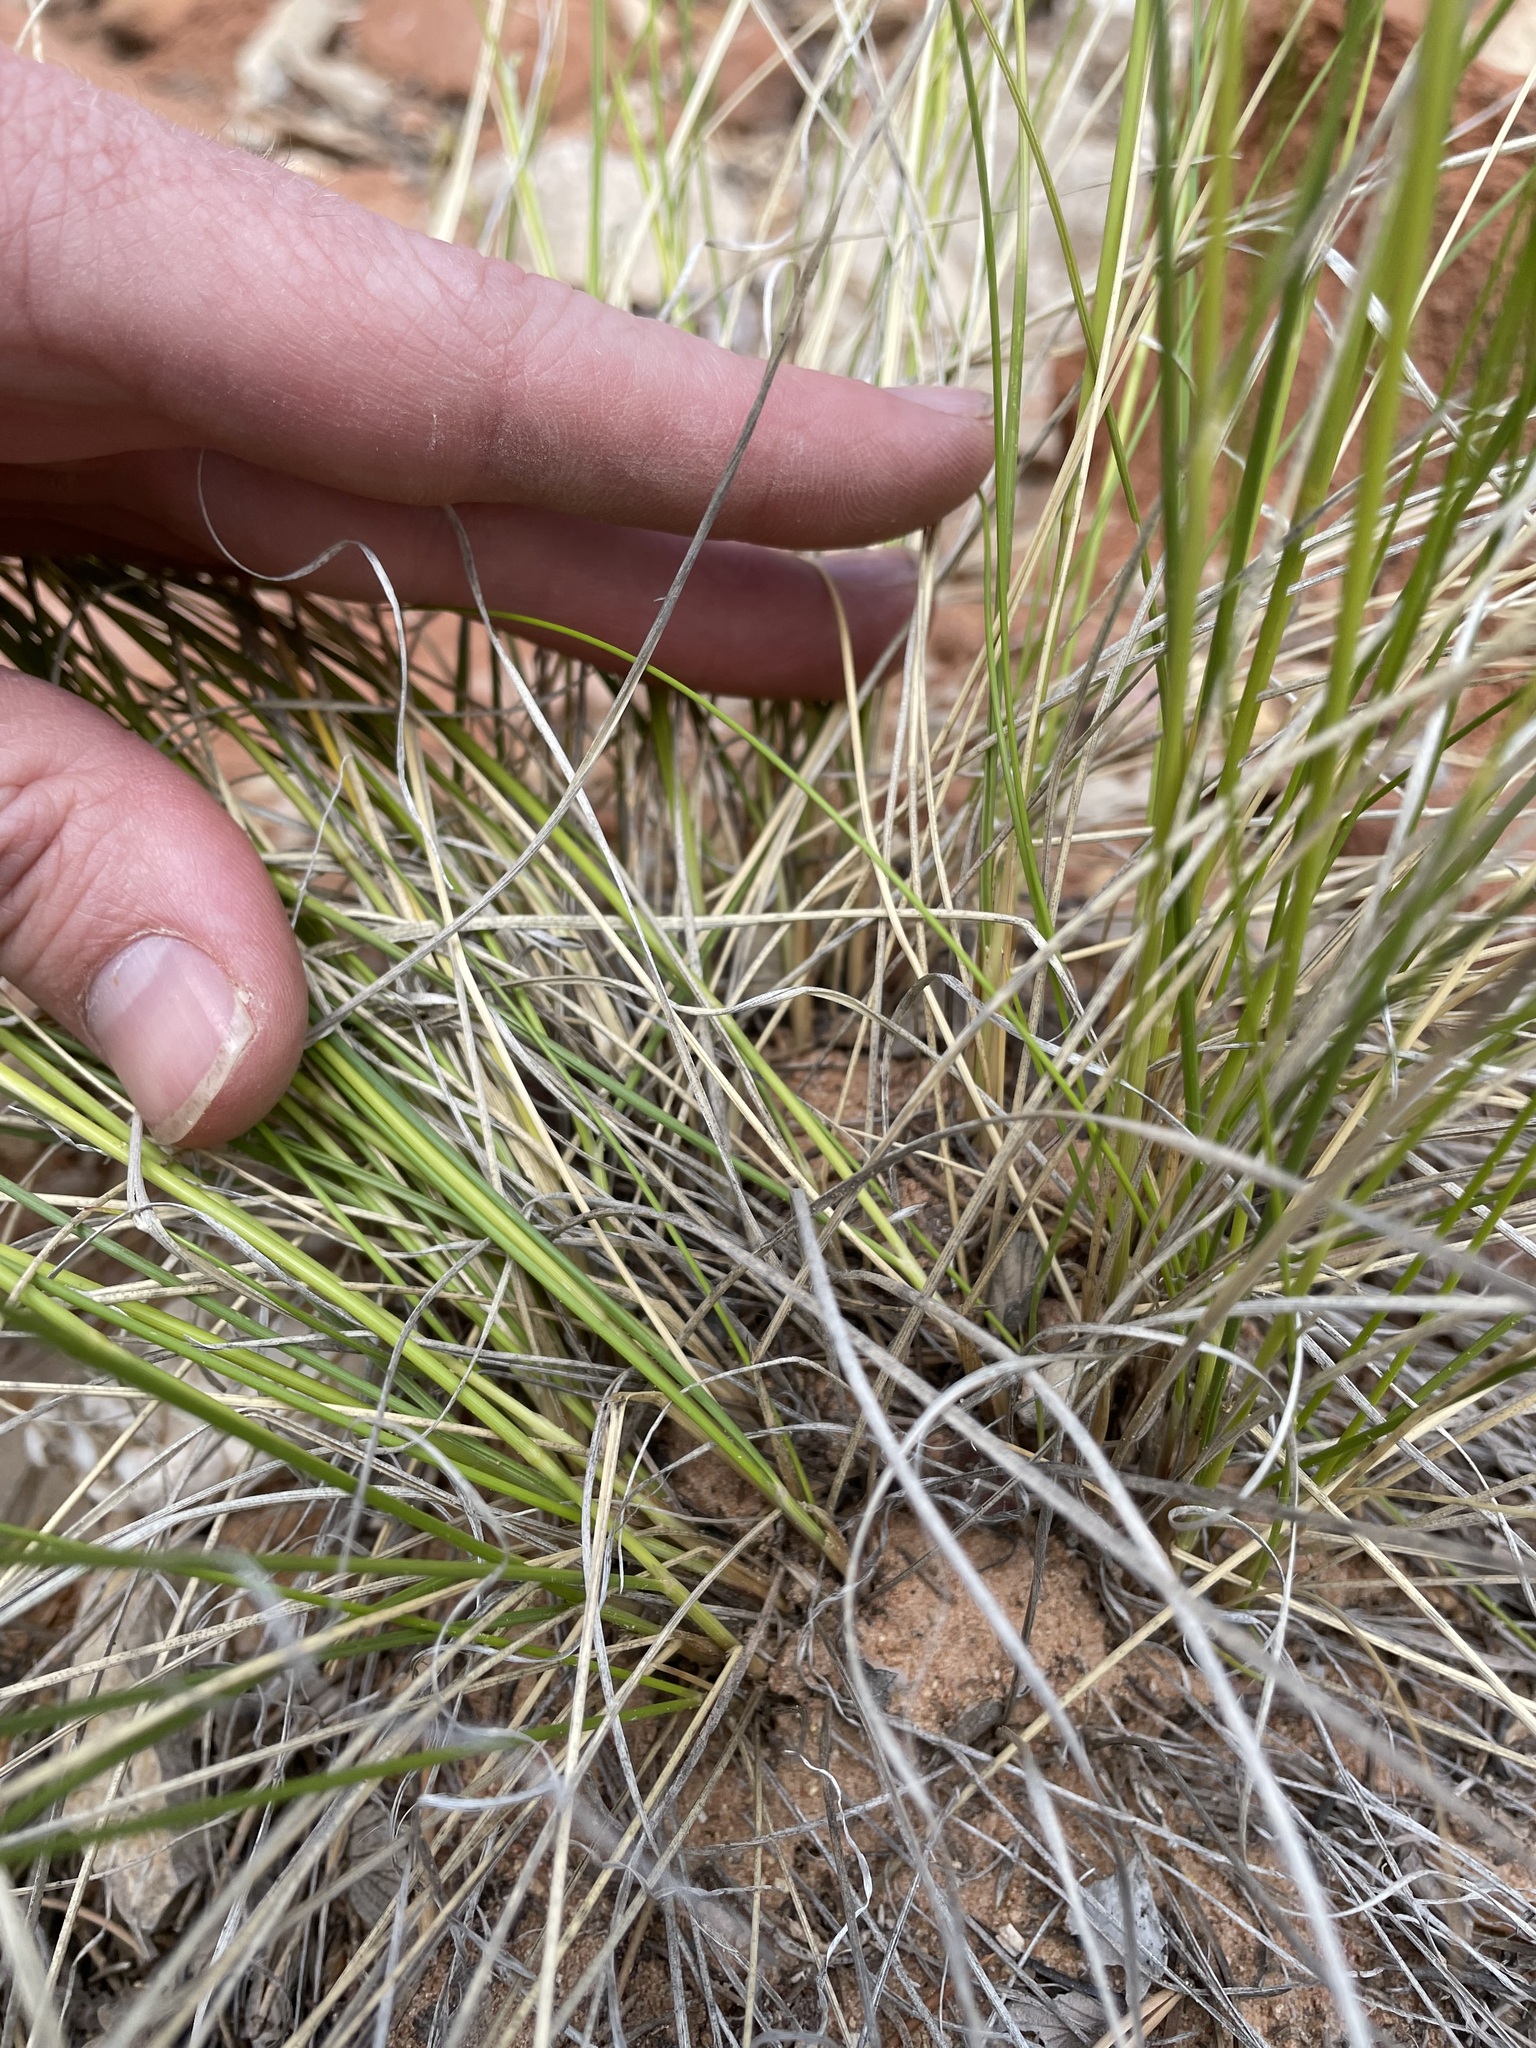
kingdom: Plantae
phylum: Tracheophyta
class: Liliopsida
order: Poales
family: Poaceae
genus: Eriocoma
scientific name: Eriocoma hymenoides
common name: Indian mountain ricegrass
